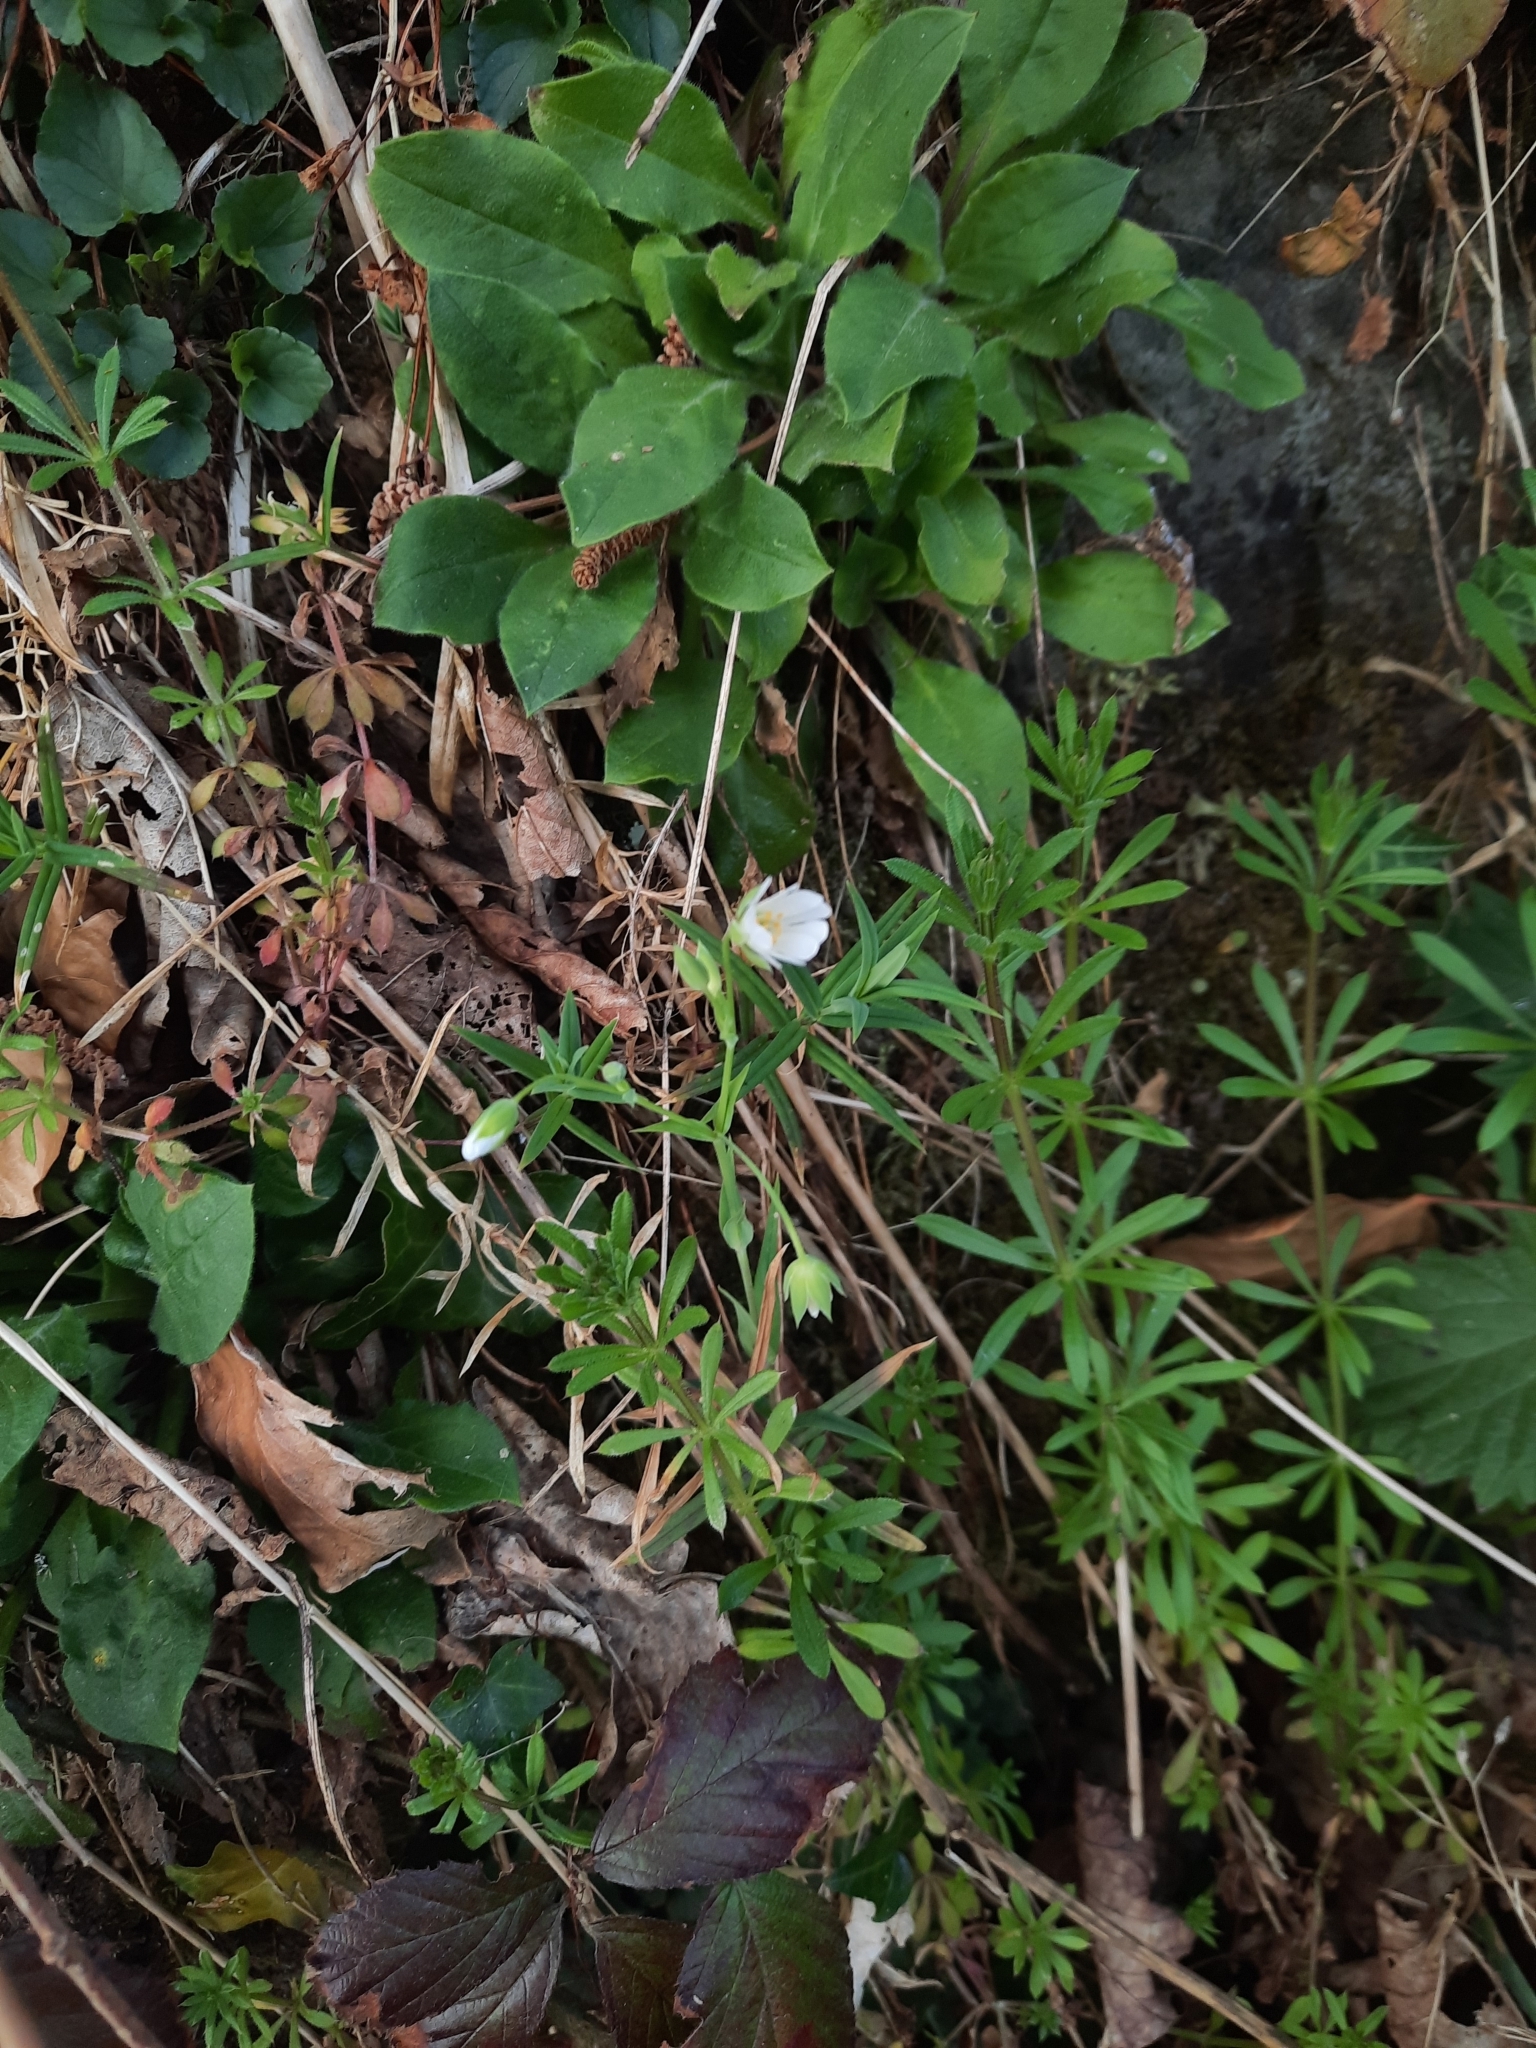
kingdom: Plantae
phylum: Tracheophyta
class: Magnoliopsida
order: Caryophyllales
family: Caryophyllaceae
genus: Rabelera
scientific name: Rabelera holostea
